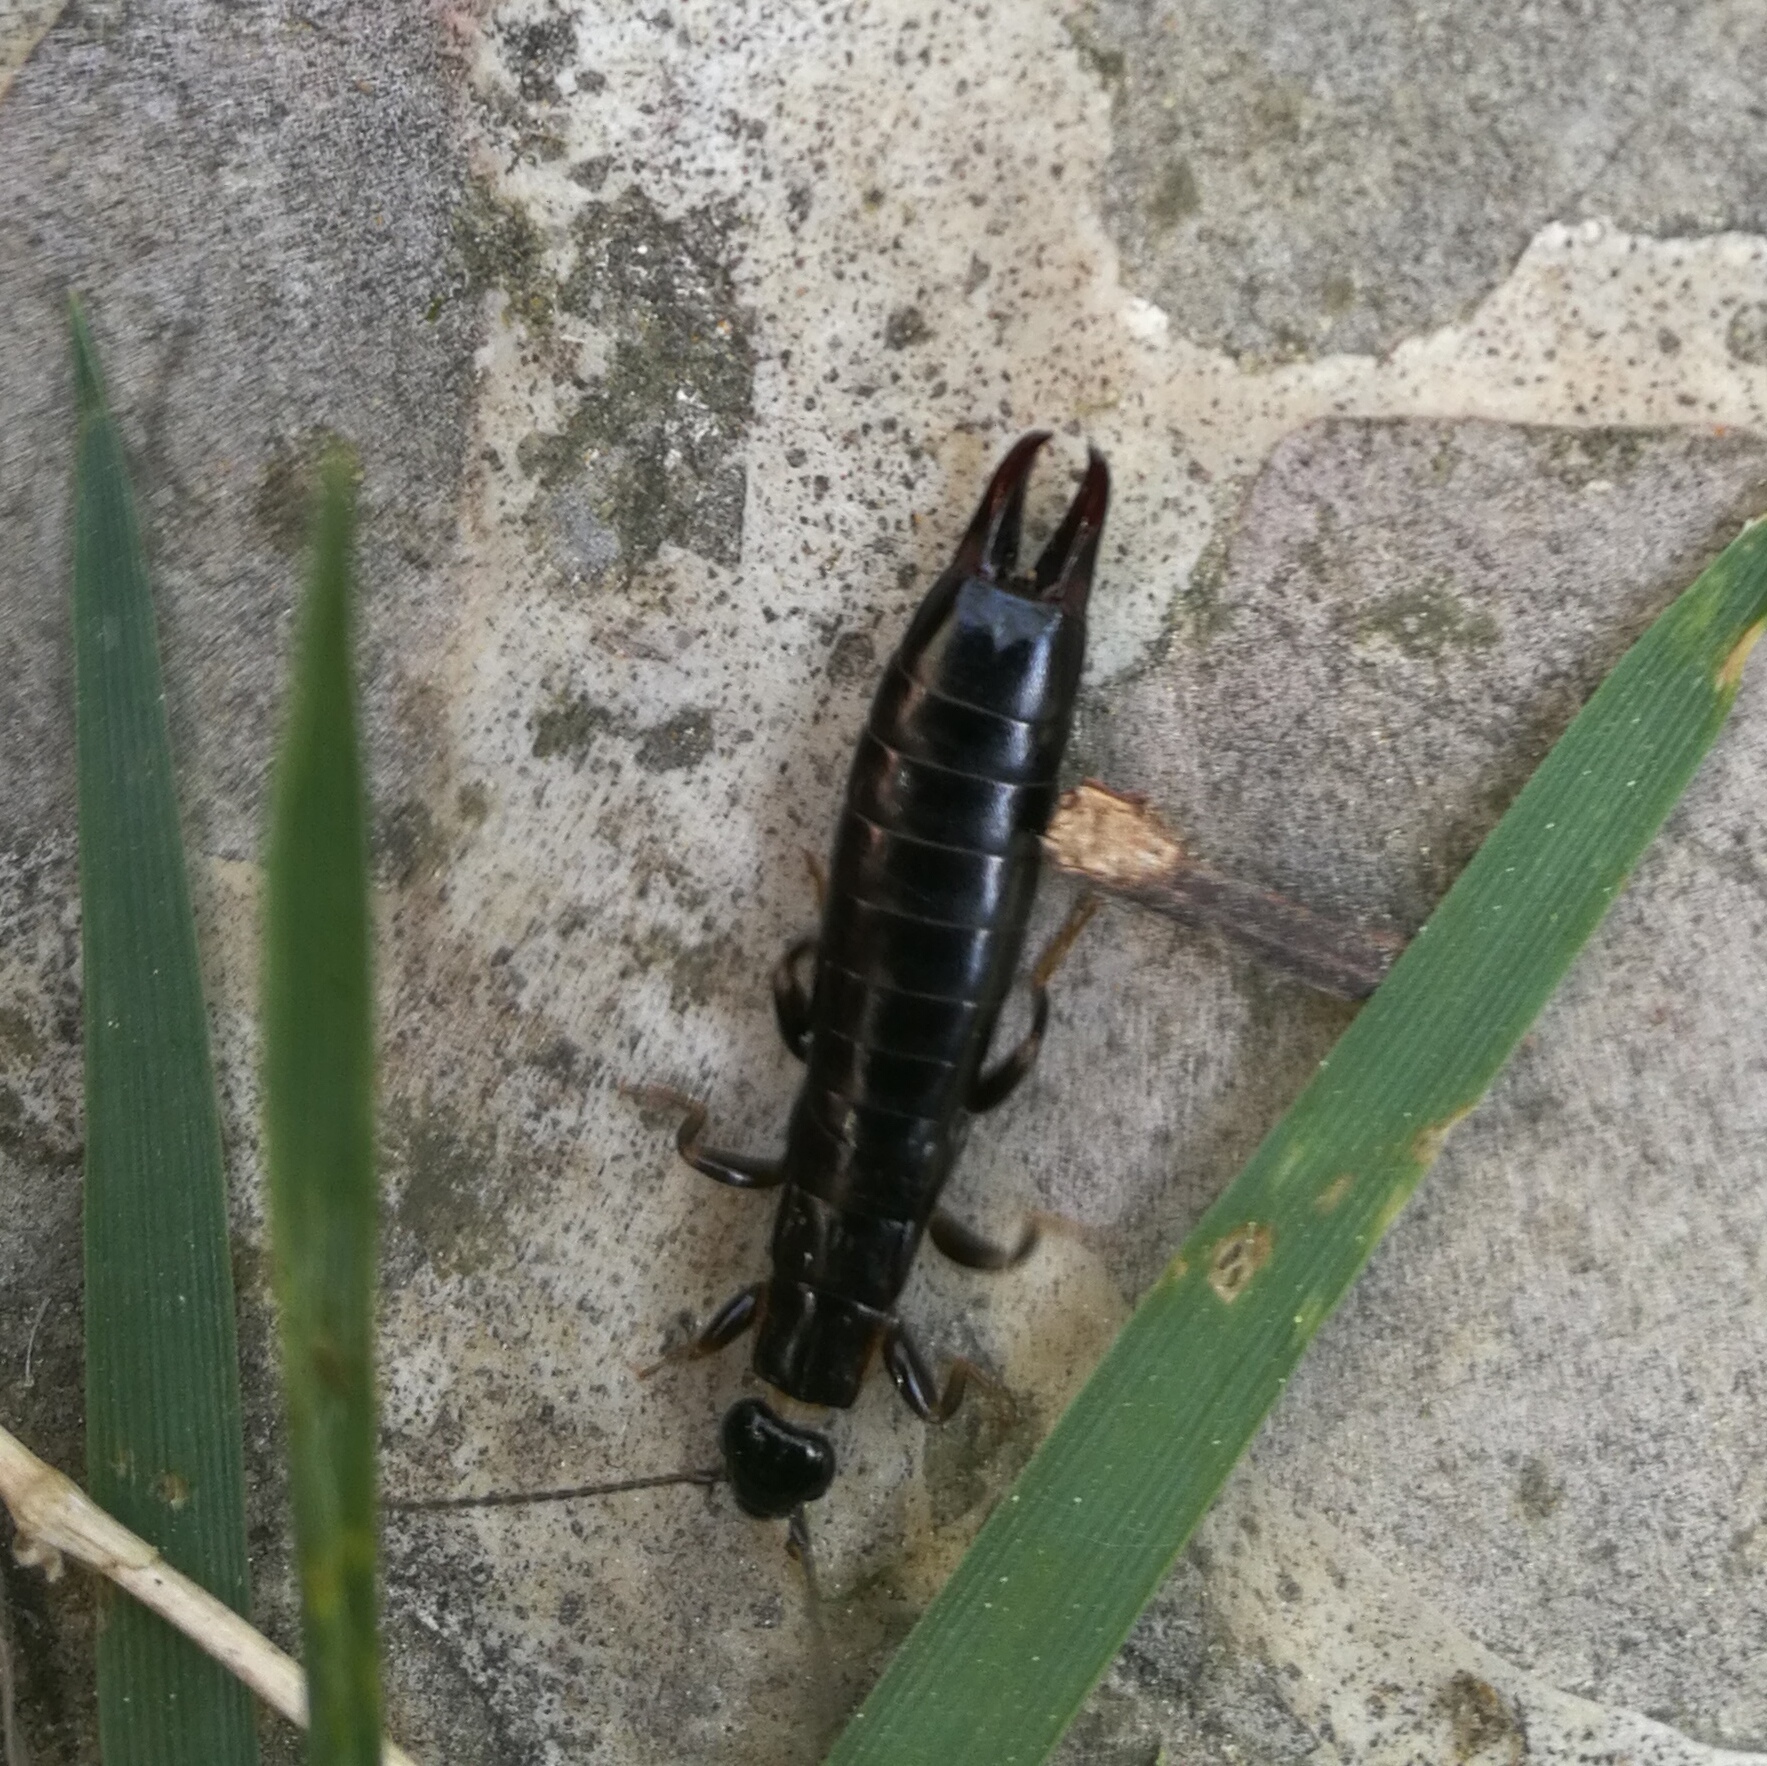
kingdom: Animalia
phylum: Arthropoda
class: Insecta
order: Dermaptera
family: Anisolabididae
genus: Euborellia
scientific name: Euborellia moesta
